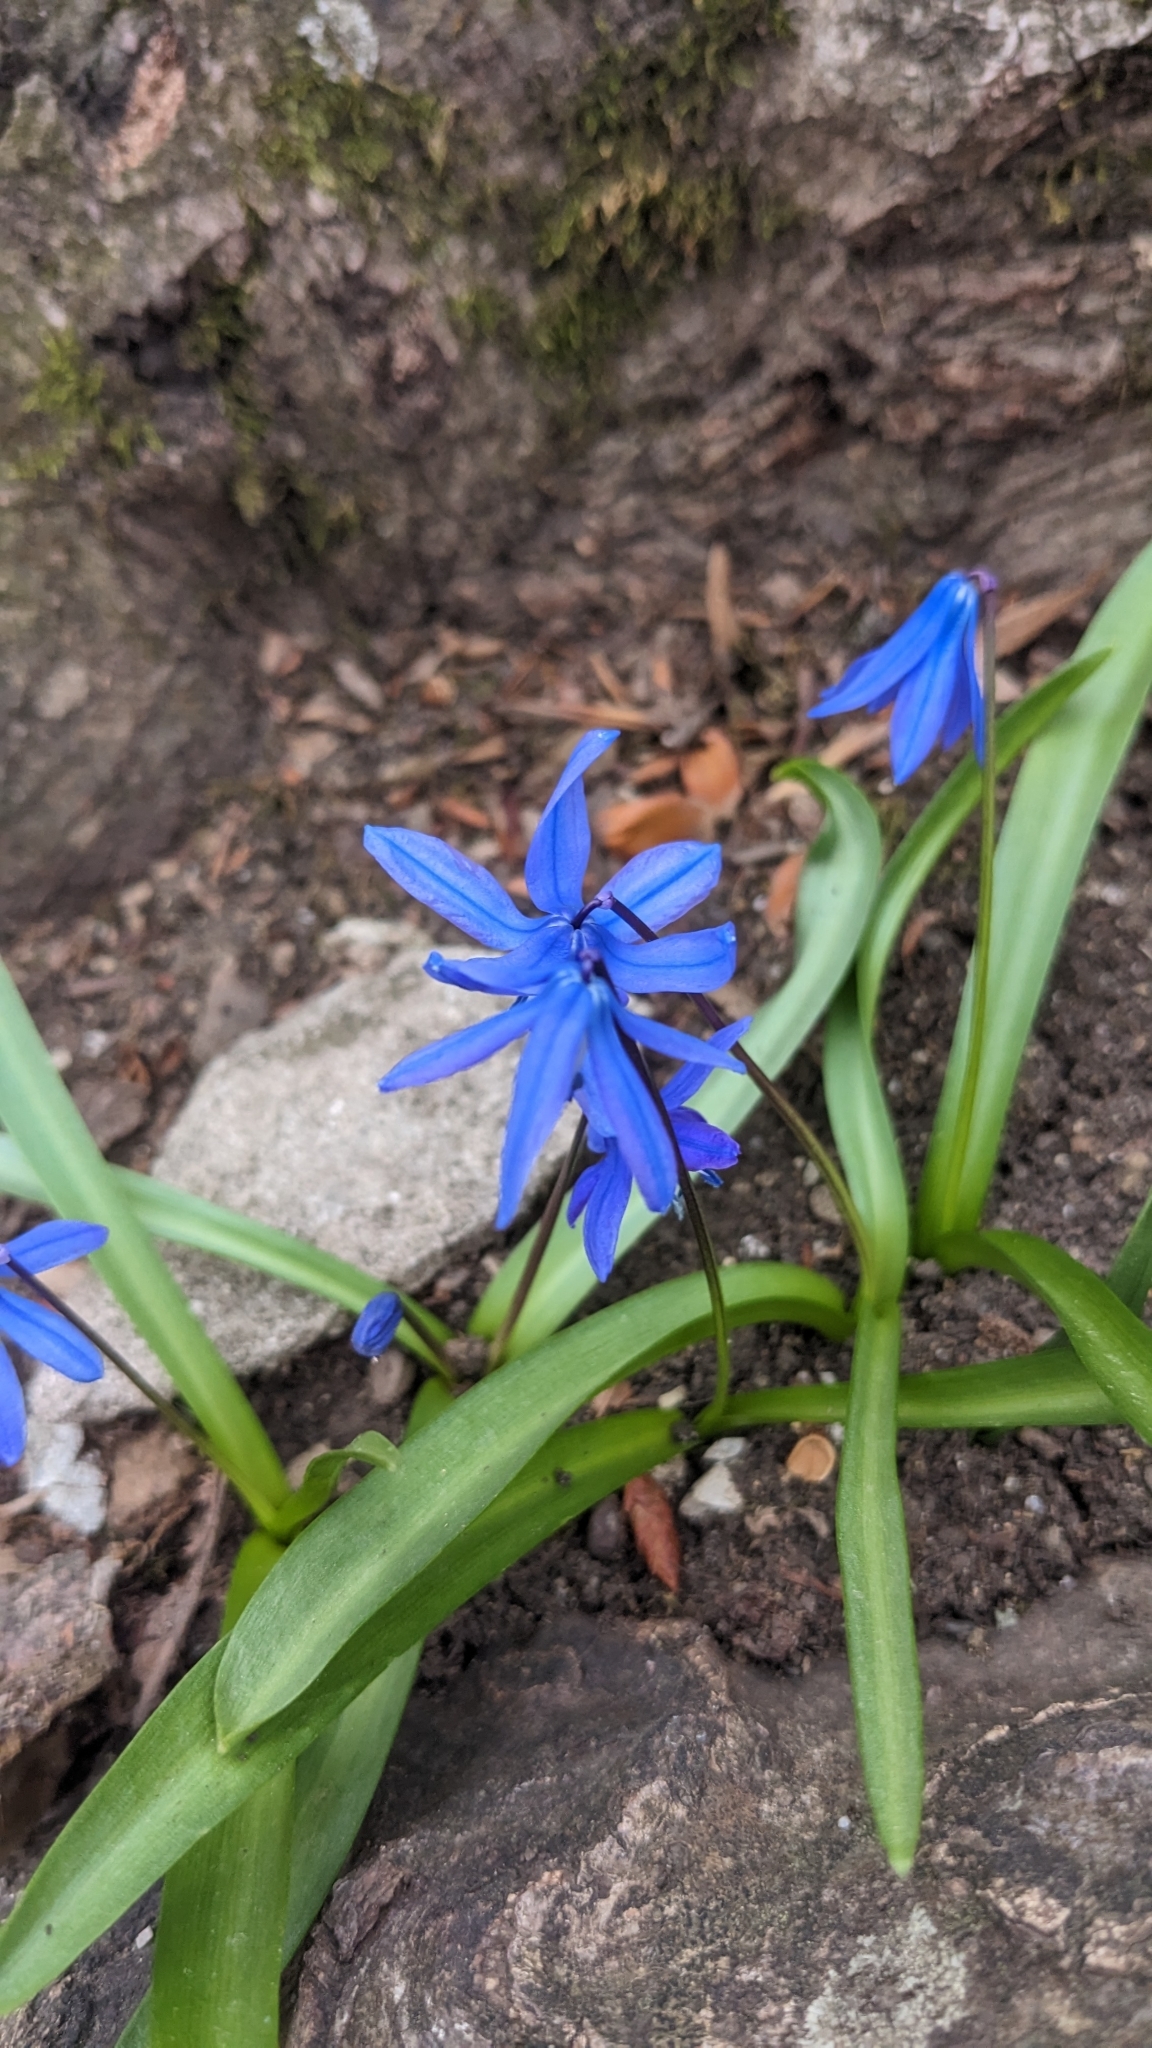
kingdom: Plantae
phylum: Tracheophyta
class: Liliopsida
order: Asparagales
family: Asparagaceae
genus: Scilla
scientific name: Scilla siberica
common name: Siberian squill
